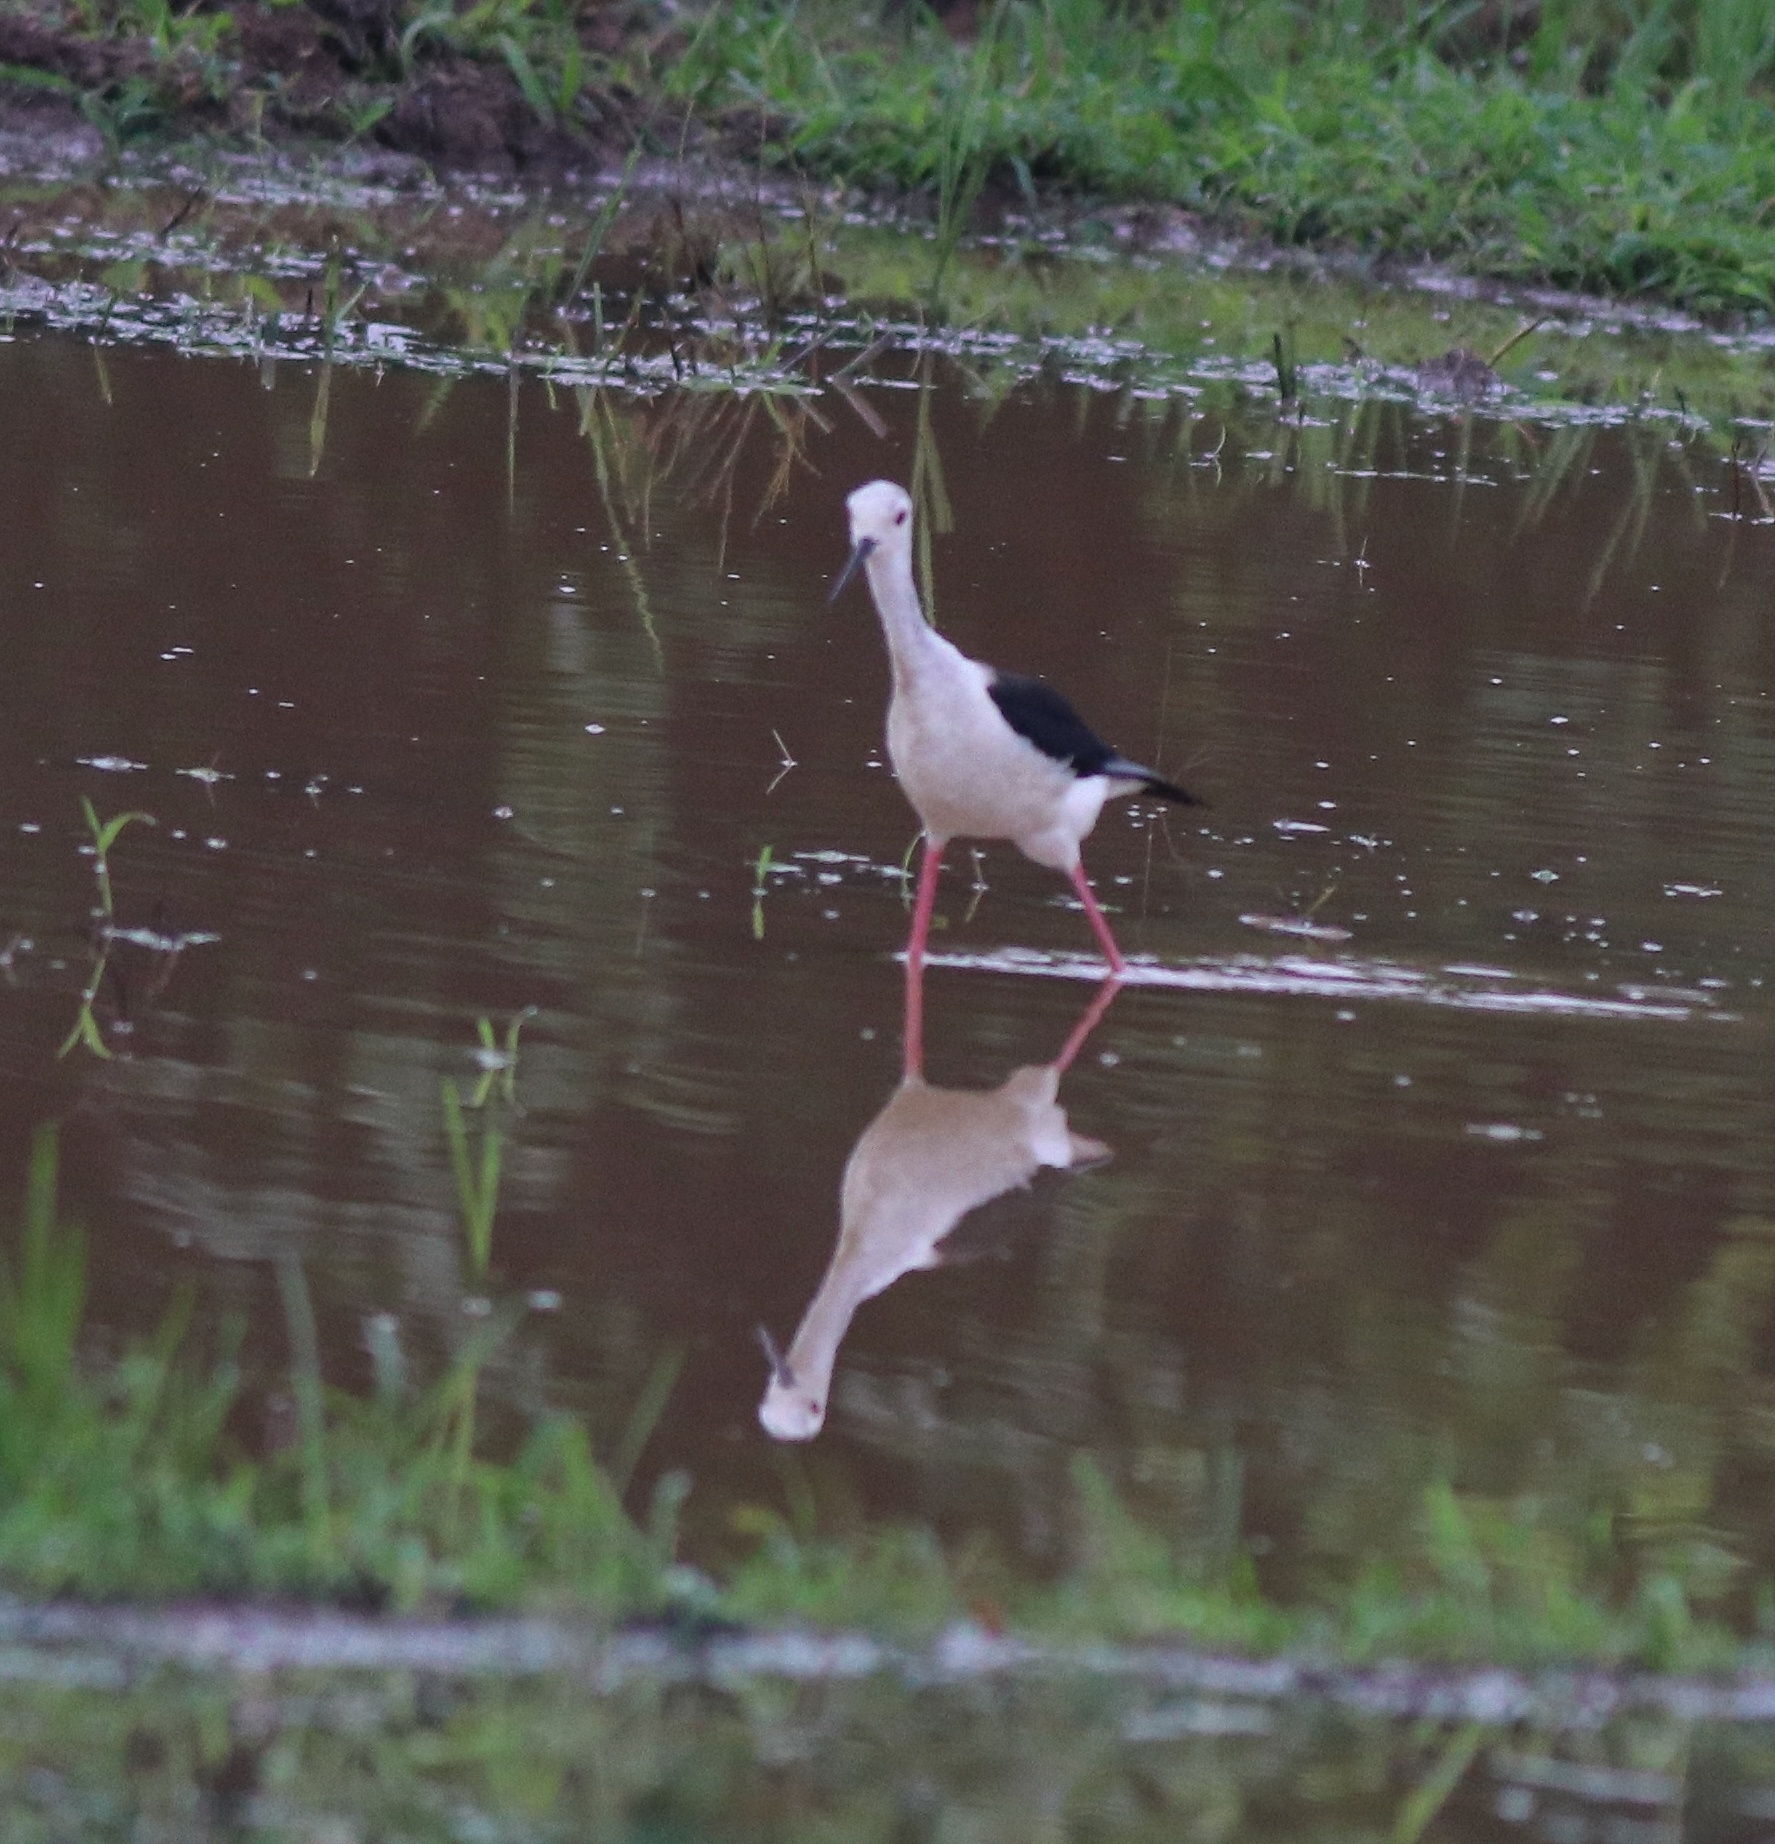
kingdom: Animalia
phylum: Chordata
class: Aves
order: Charadriiformes
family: Recurvirostridae
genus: Himantopus
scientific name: Himantopus himantopus
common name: Black-winged stilt
